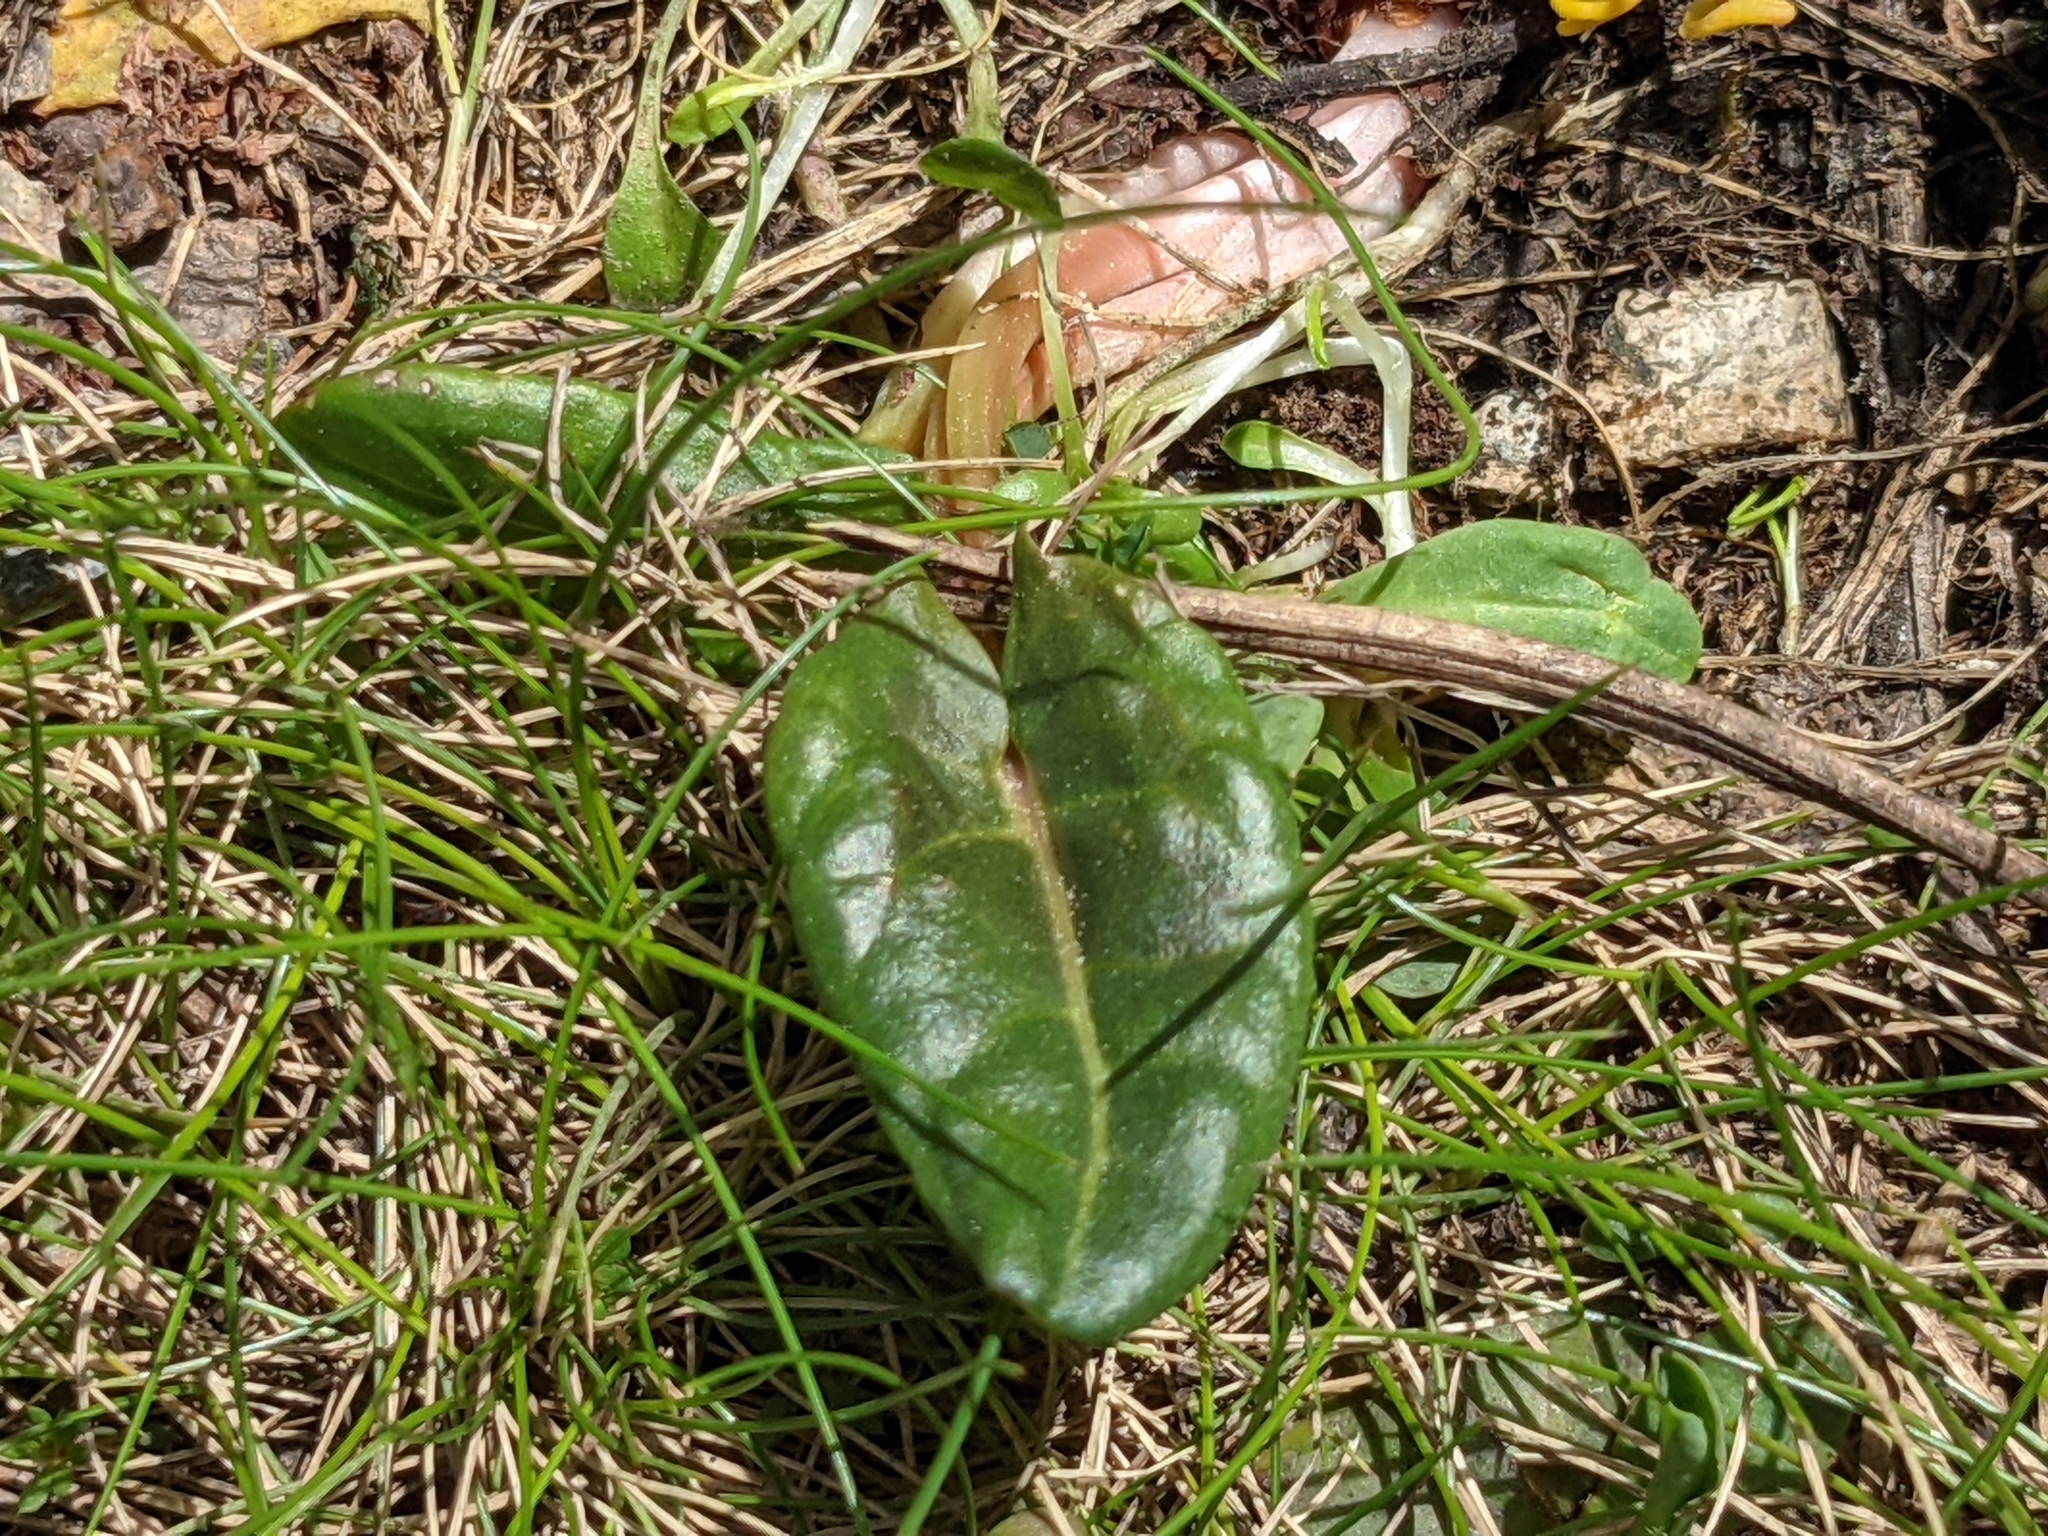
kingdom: Plantae
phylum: Tracheophyta
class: Magnoliopsida
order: Caryophyllales
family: Polygonaceae
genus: Rumex
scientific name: Rumex acetosa
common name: Garden sorrel
